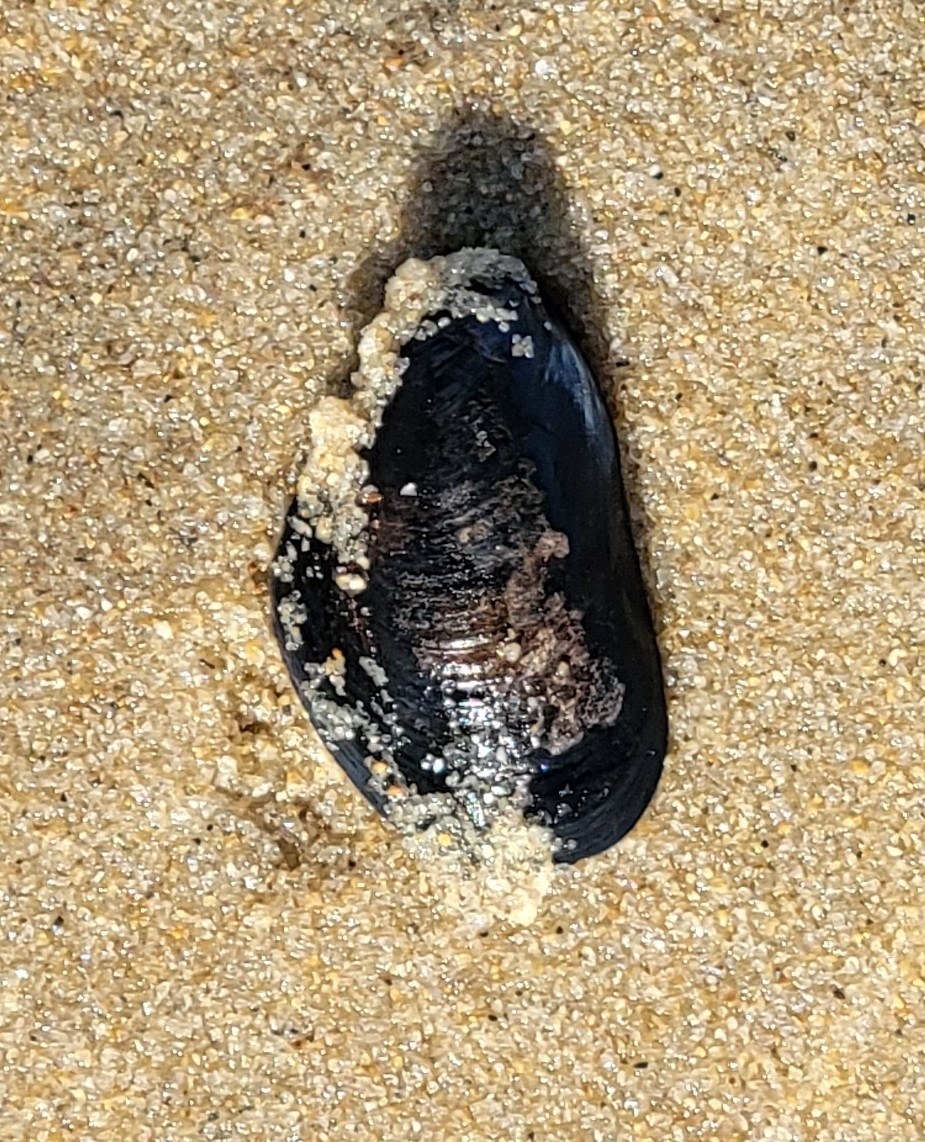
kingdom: Animalia
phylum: Mollusca
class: Bivalvia
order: Mytilida
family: Mytilidae
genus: Mytilus
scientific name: Mytilus edulis
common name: Blue mussel
